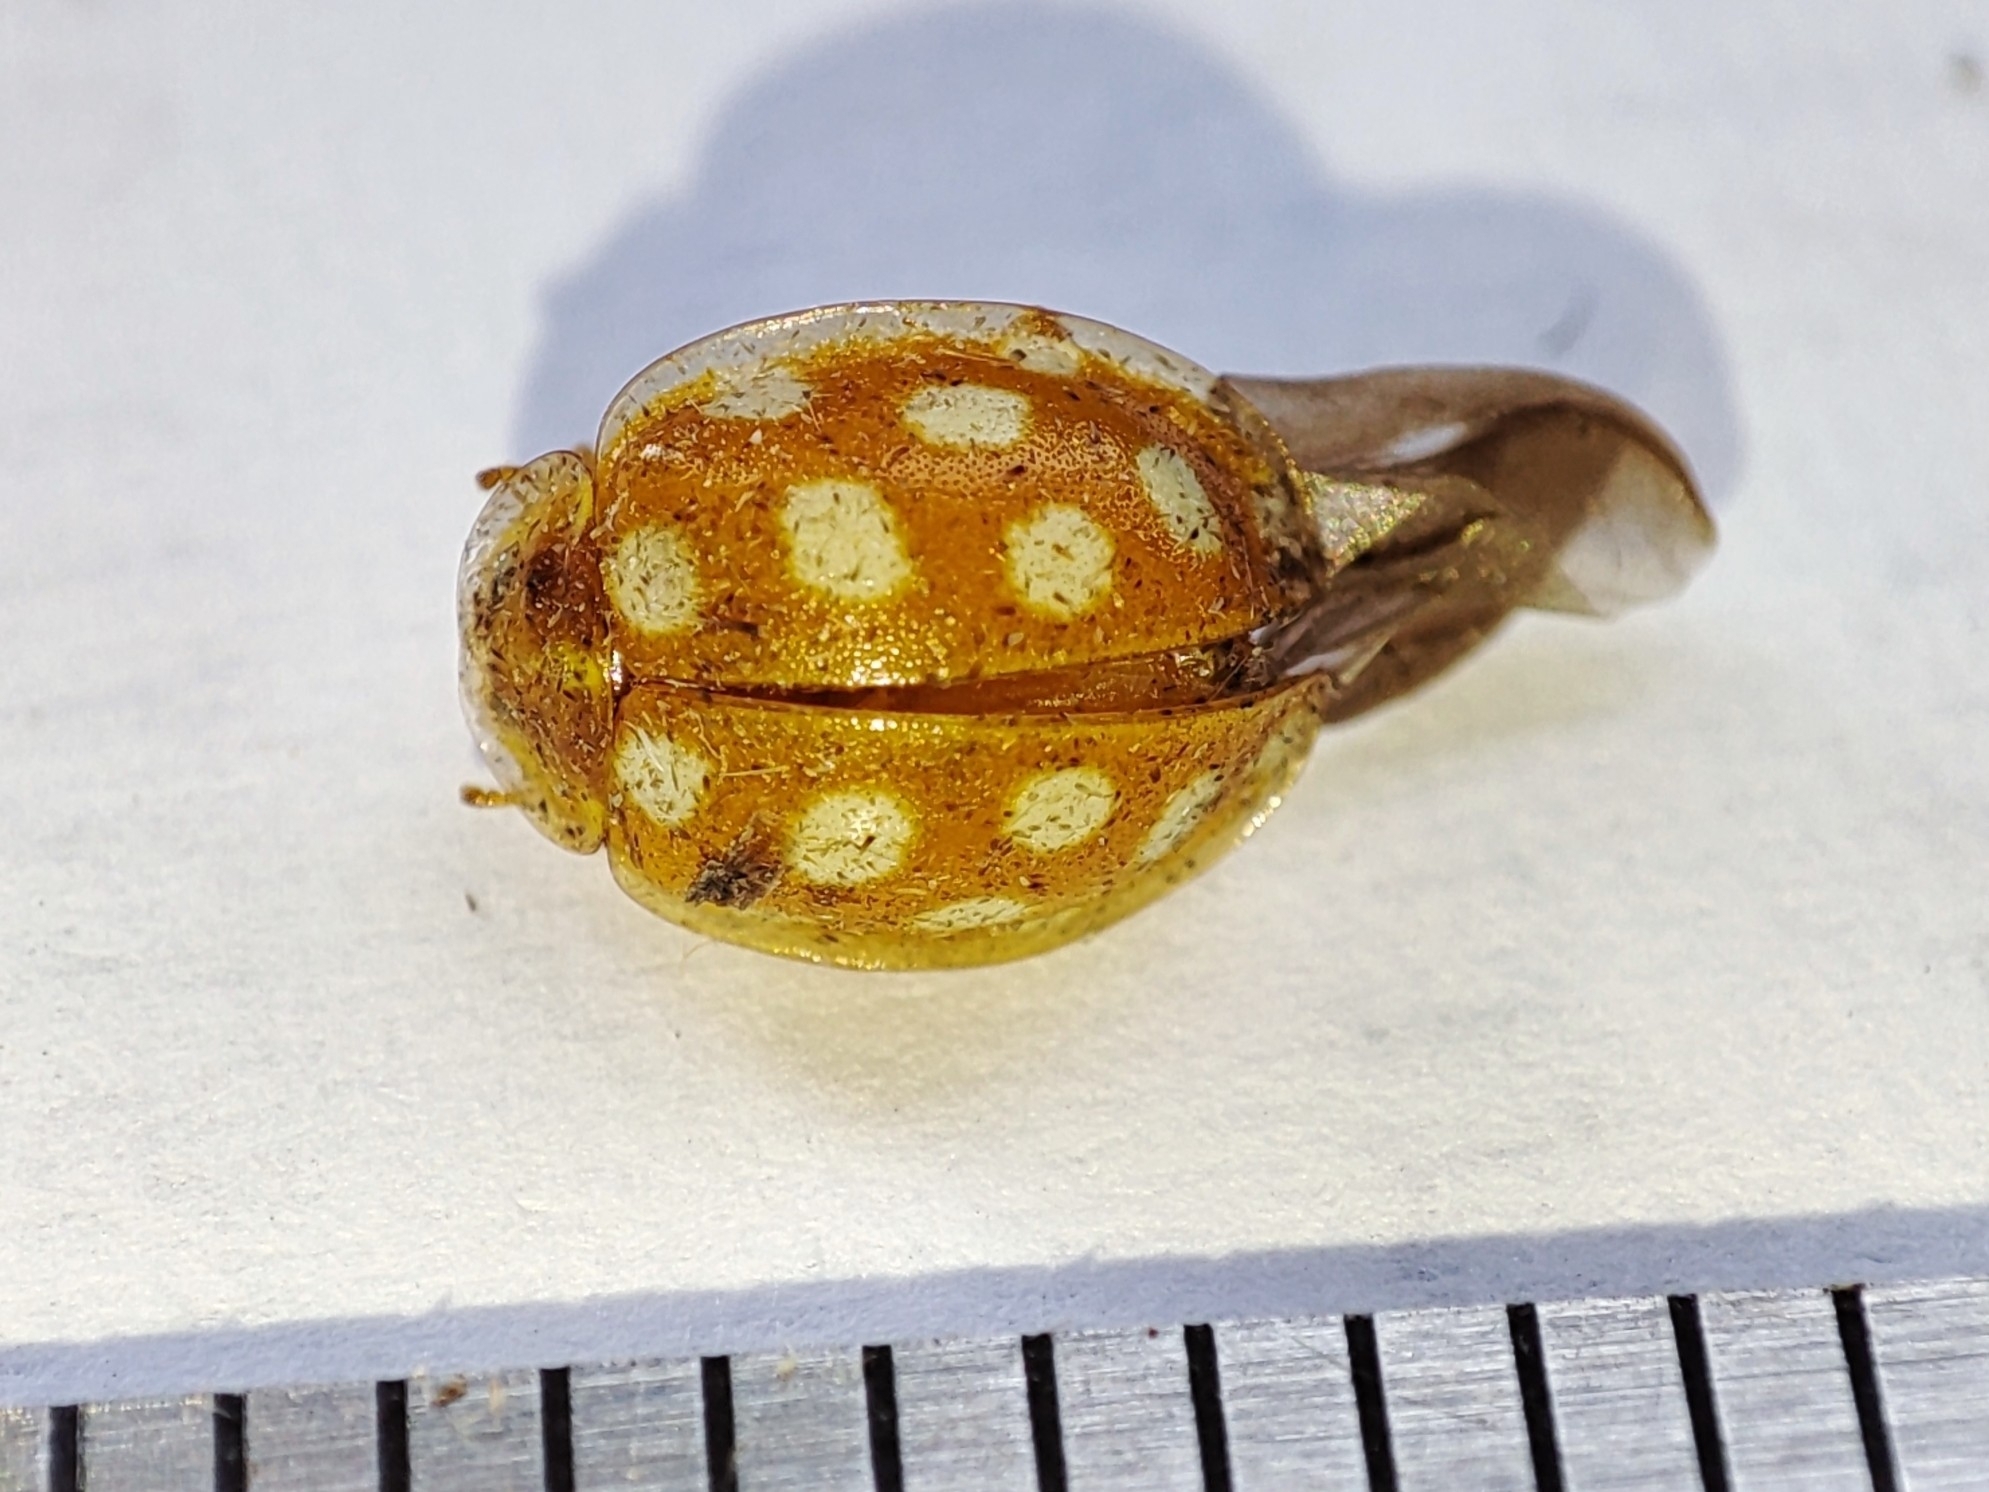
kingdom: Animalia
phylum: Arthropoda
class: Insecta
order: Coleoptera
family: Coccinellidae
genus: Halyzia
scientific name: Halyzia sedecimguttata
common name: Orange ladybird
